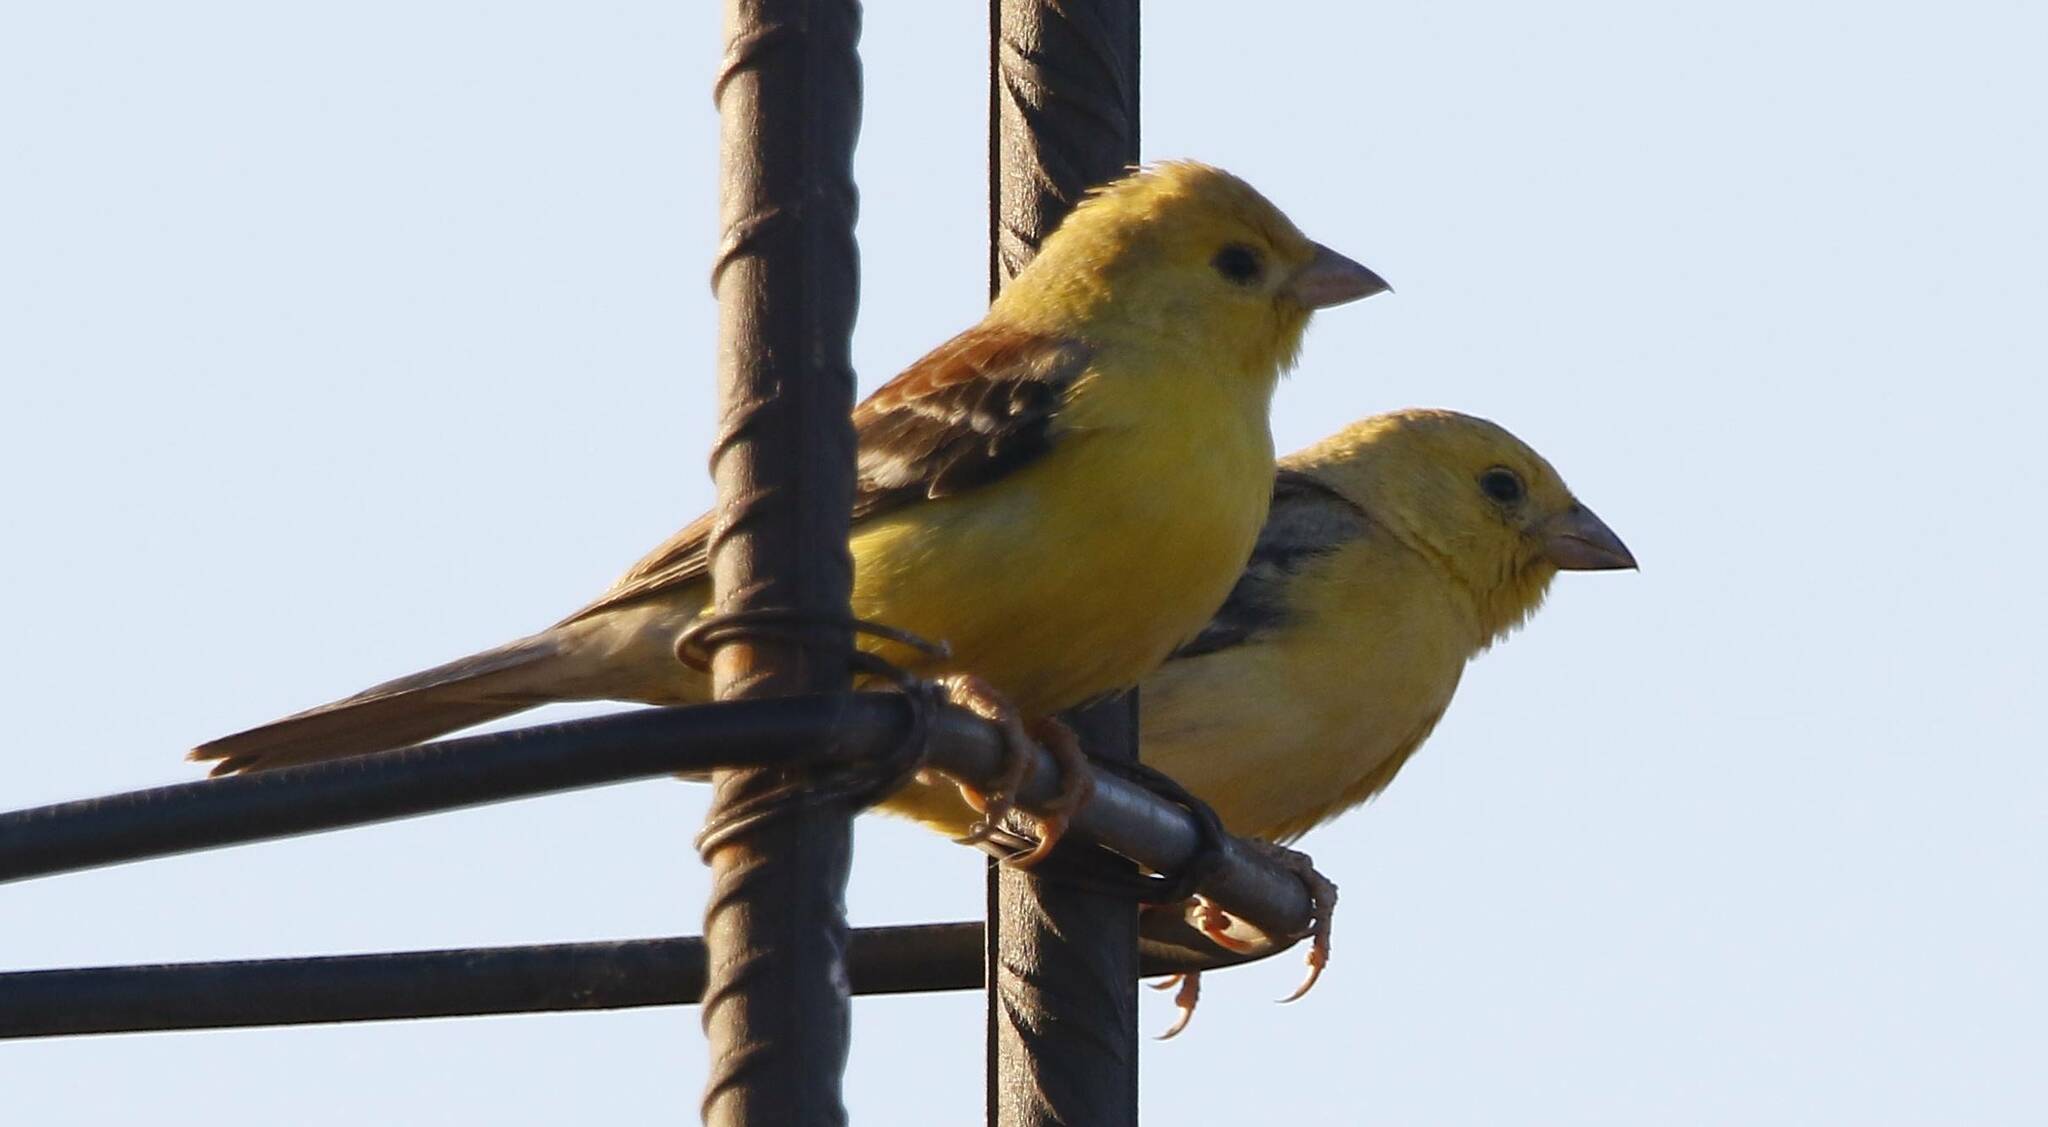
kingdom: Animalia
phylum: Chordata
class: Aves
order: Passeriformes
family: Passeridae
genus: Passer
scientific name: Passer luteus
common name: Sudan golden sparrow
